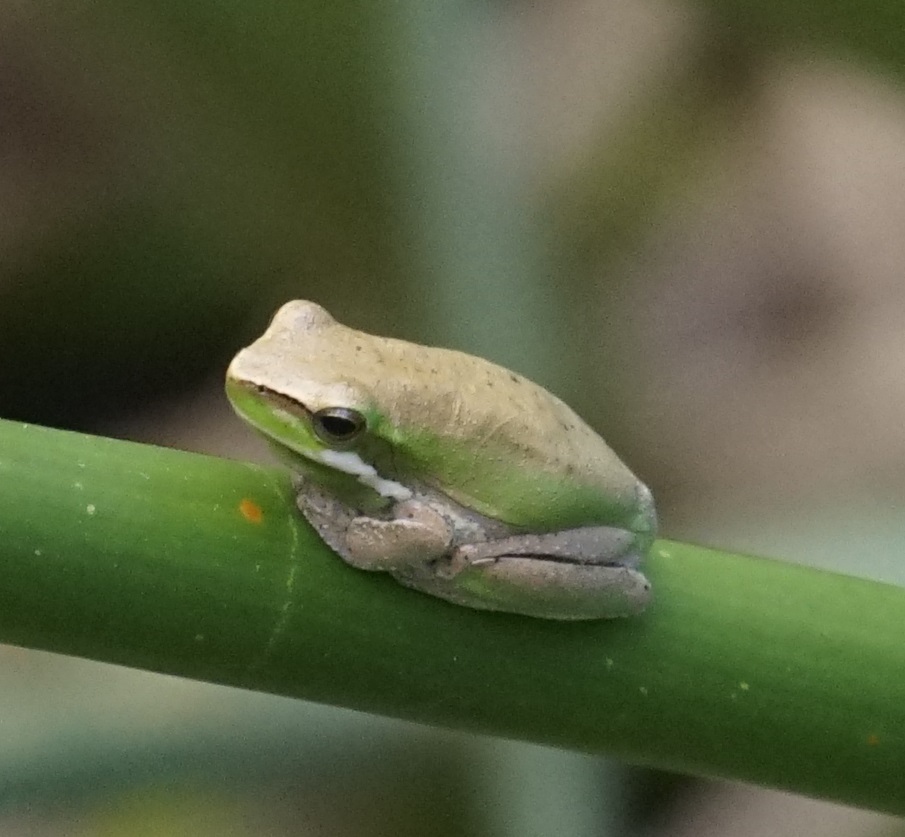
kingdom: Animalia
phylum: Chordata
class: Amphibia
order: Anura
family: Pelodryadidae
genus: Litoria
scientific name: Litoria fallax
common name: Eastern dwarf treefrog
